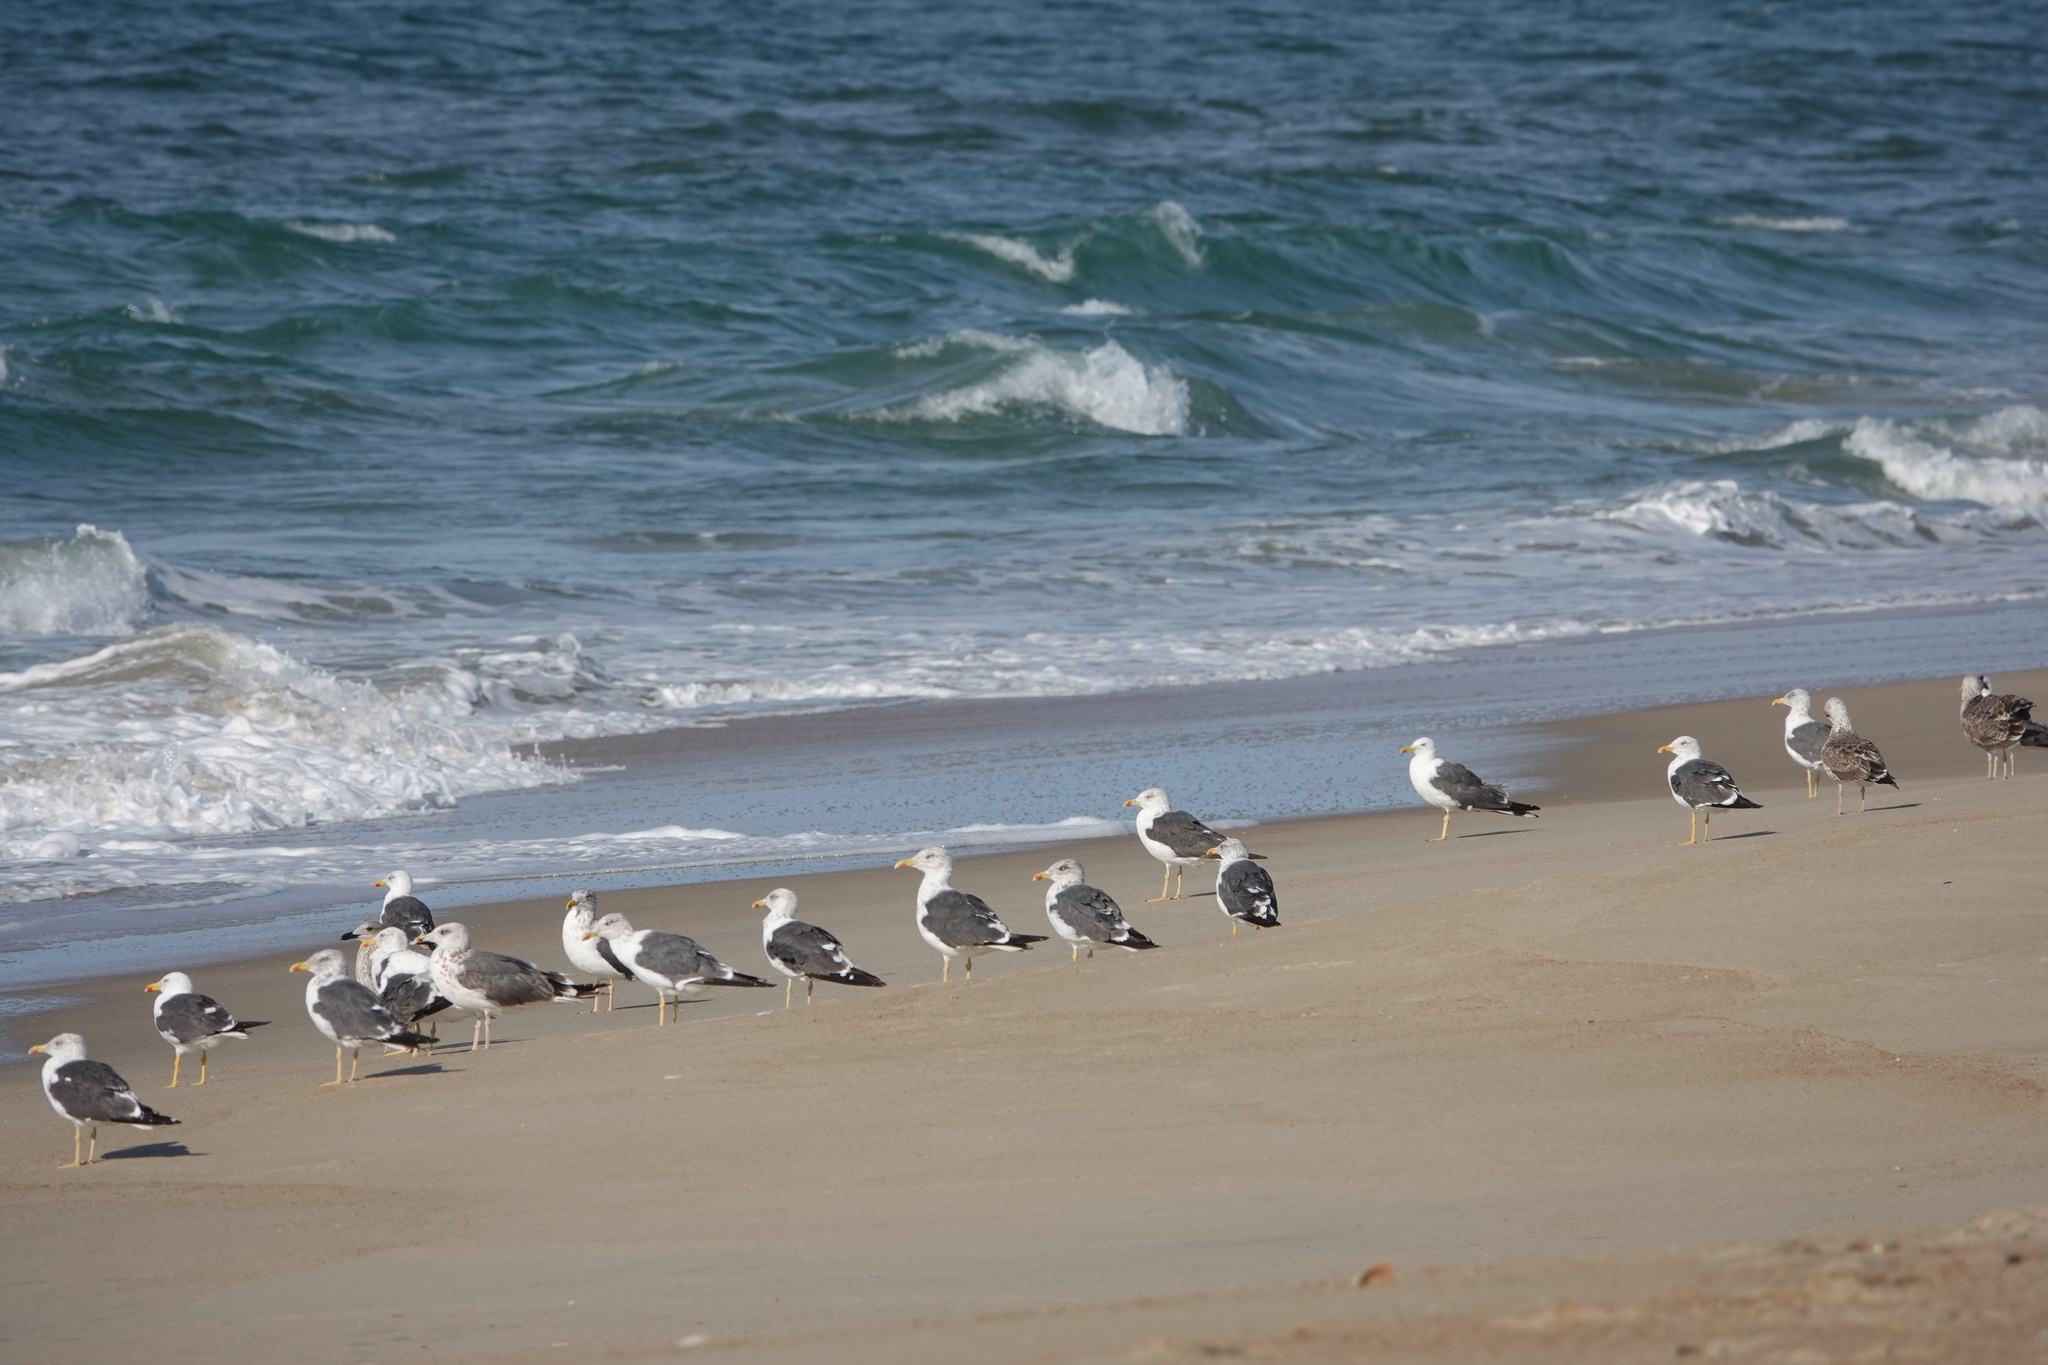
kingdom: Animalia
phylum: Chordata
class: Aves
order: Charadriiformes
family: Laridae
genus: Larus
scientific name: Larus fuscus
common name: Lesser black-backed gull
